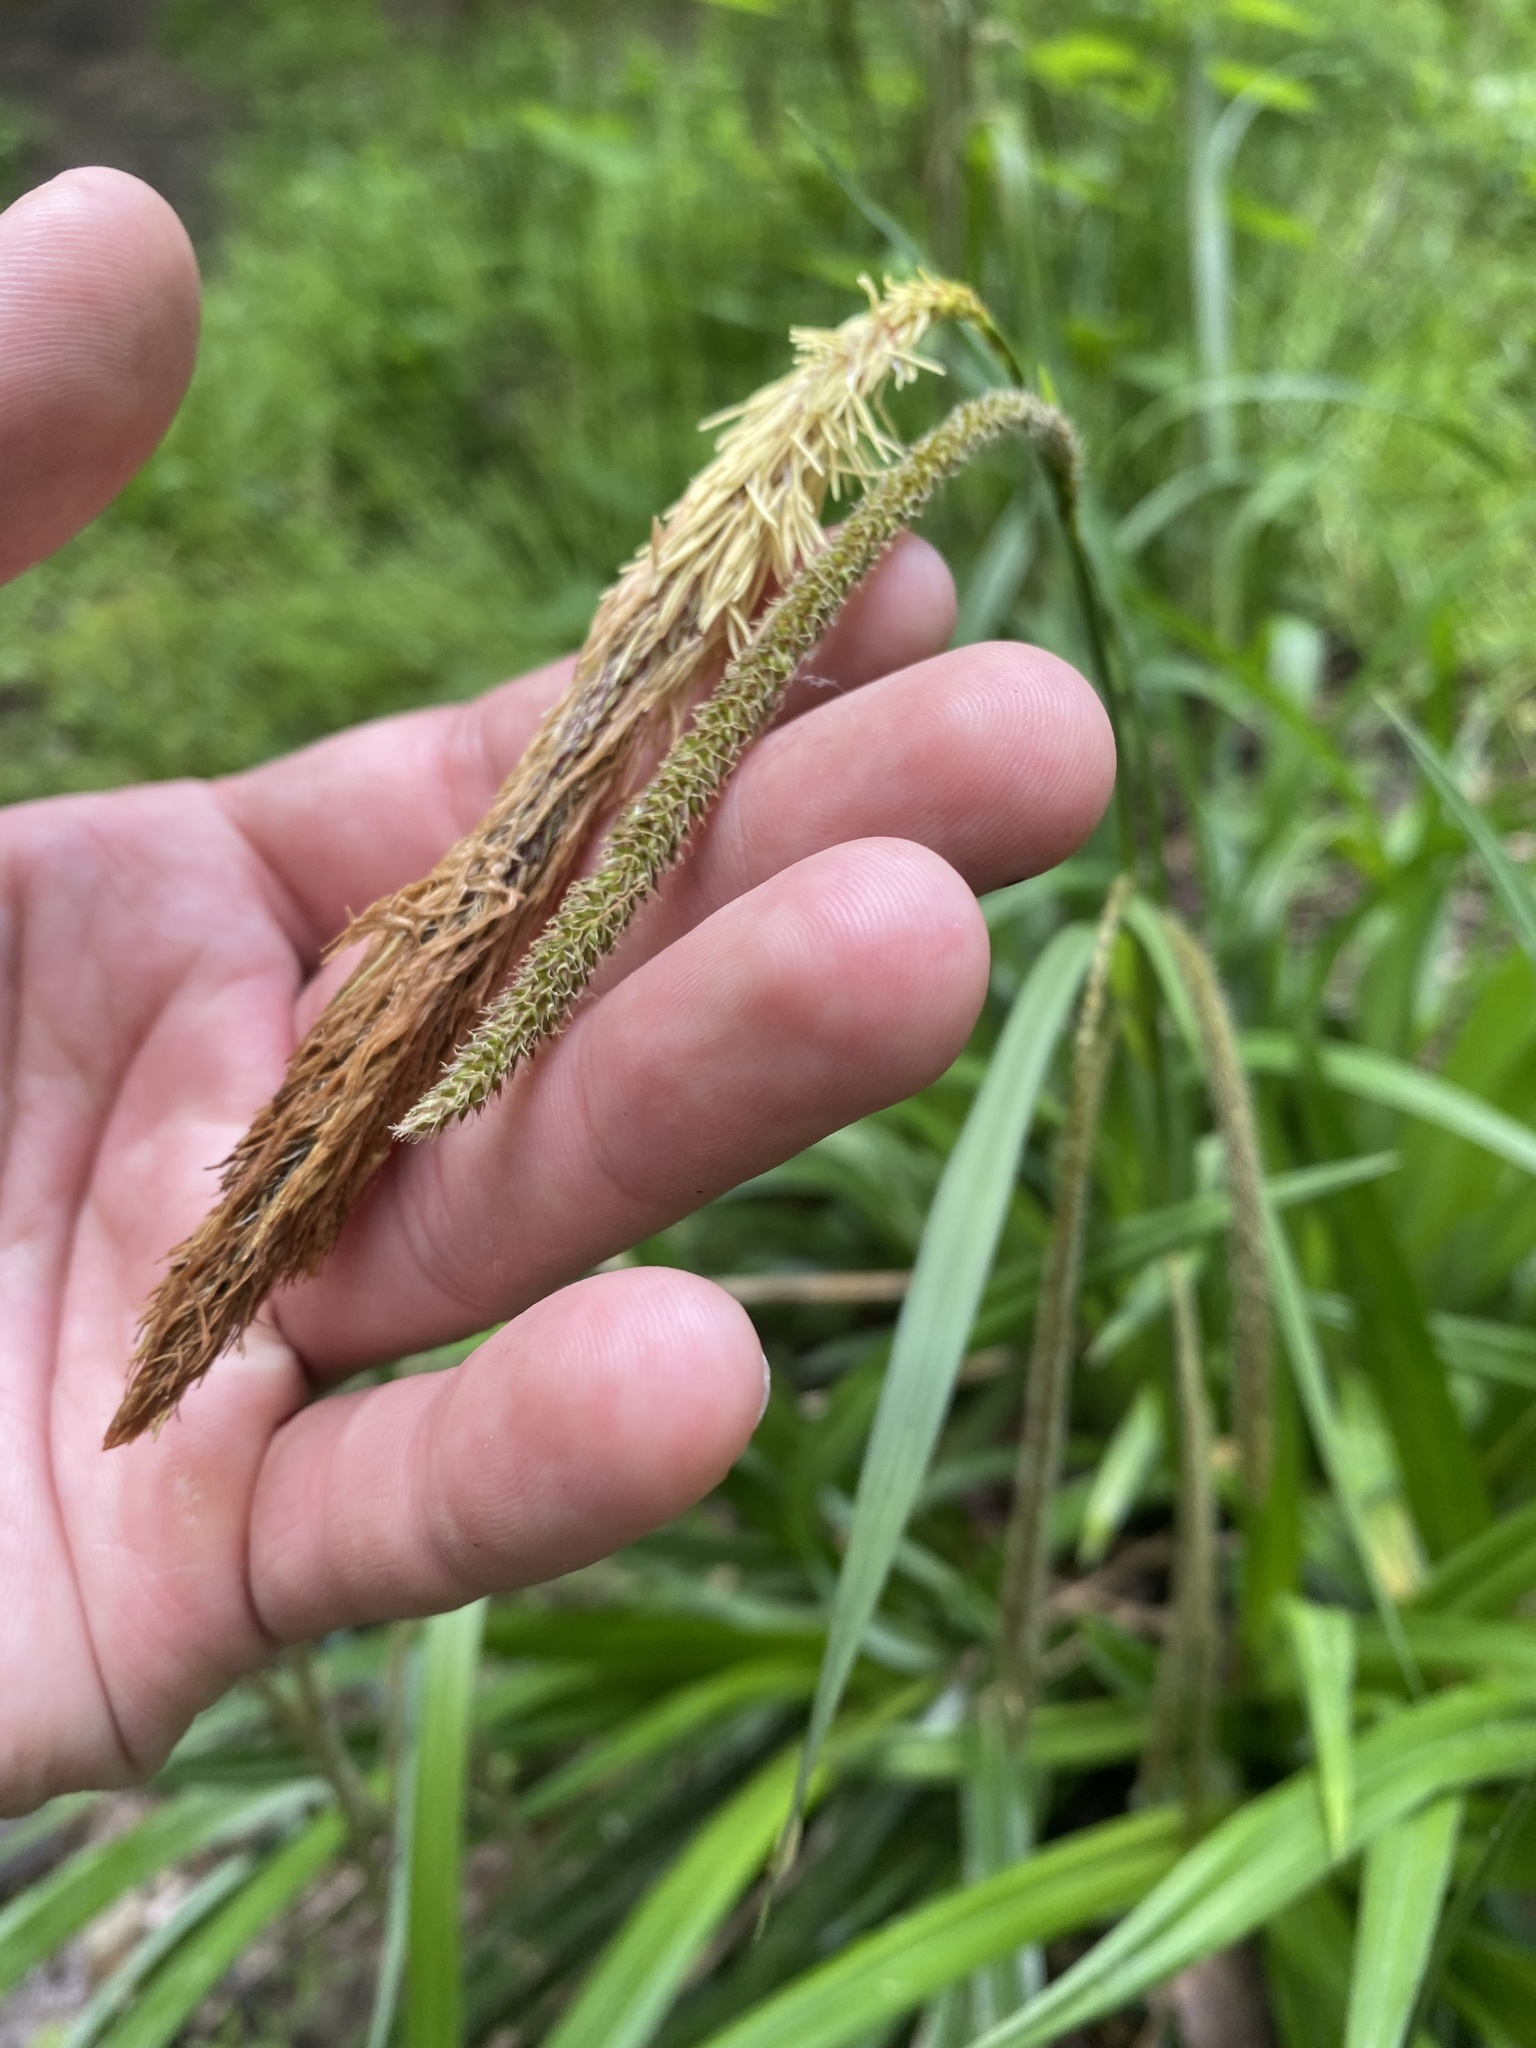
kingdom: Plantae
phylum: Tracheophyta
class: Liliopsida
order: Poales
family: Cyperaceae
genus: Carex
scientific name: Carex pendula
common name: Pendulous sedge
